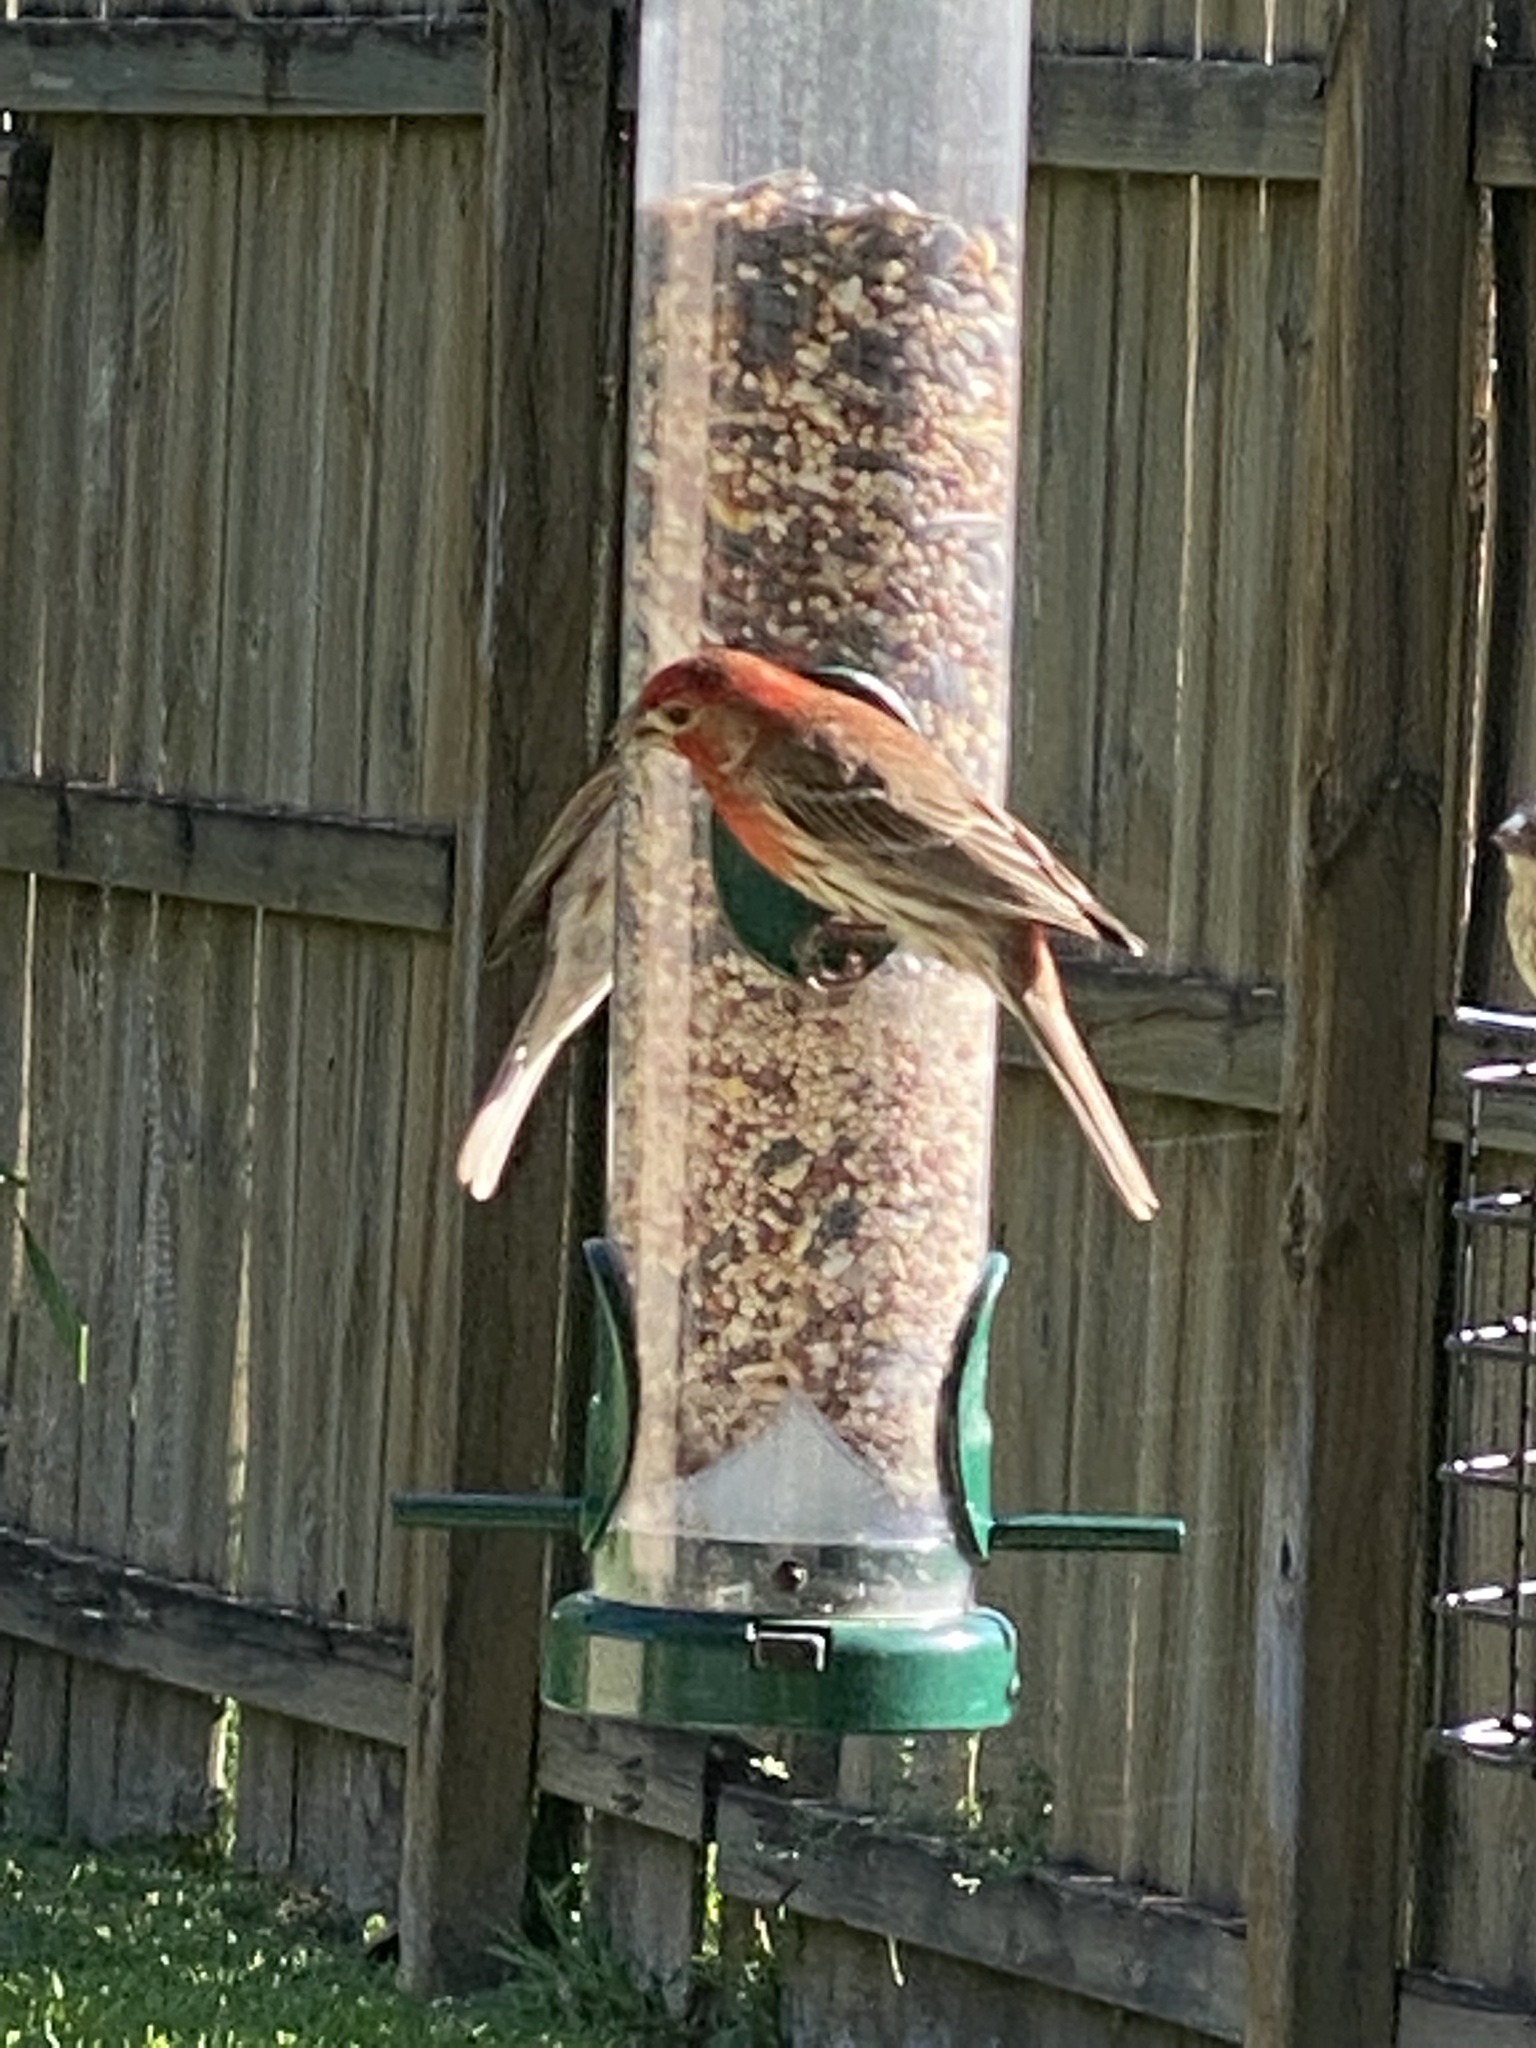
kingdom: Animalia
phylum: Chordata
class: Aves
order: Passeriformes
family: Fringillidae
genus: Haemorhous
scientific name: Haemorhous mexicanus
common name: House finch
